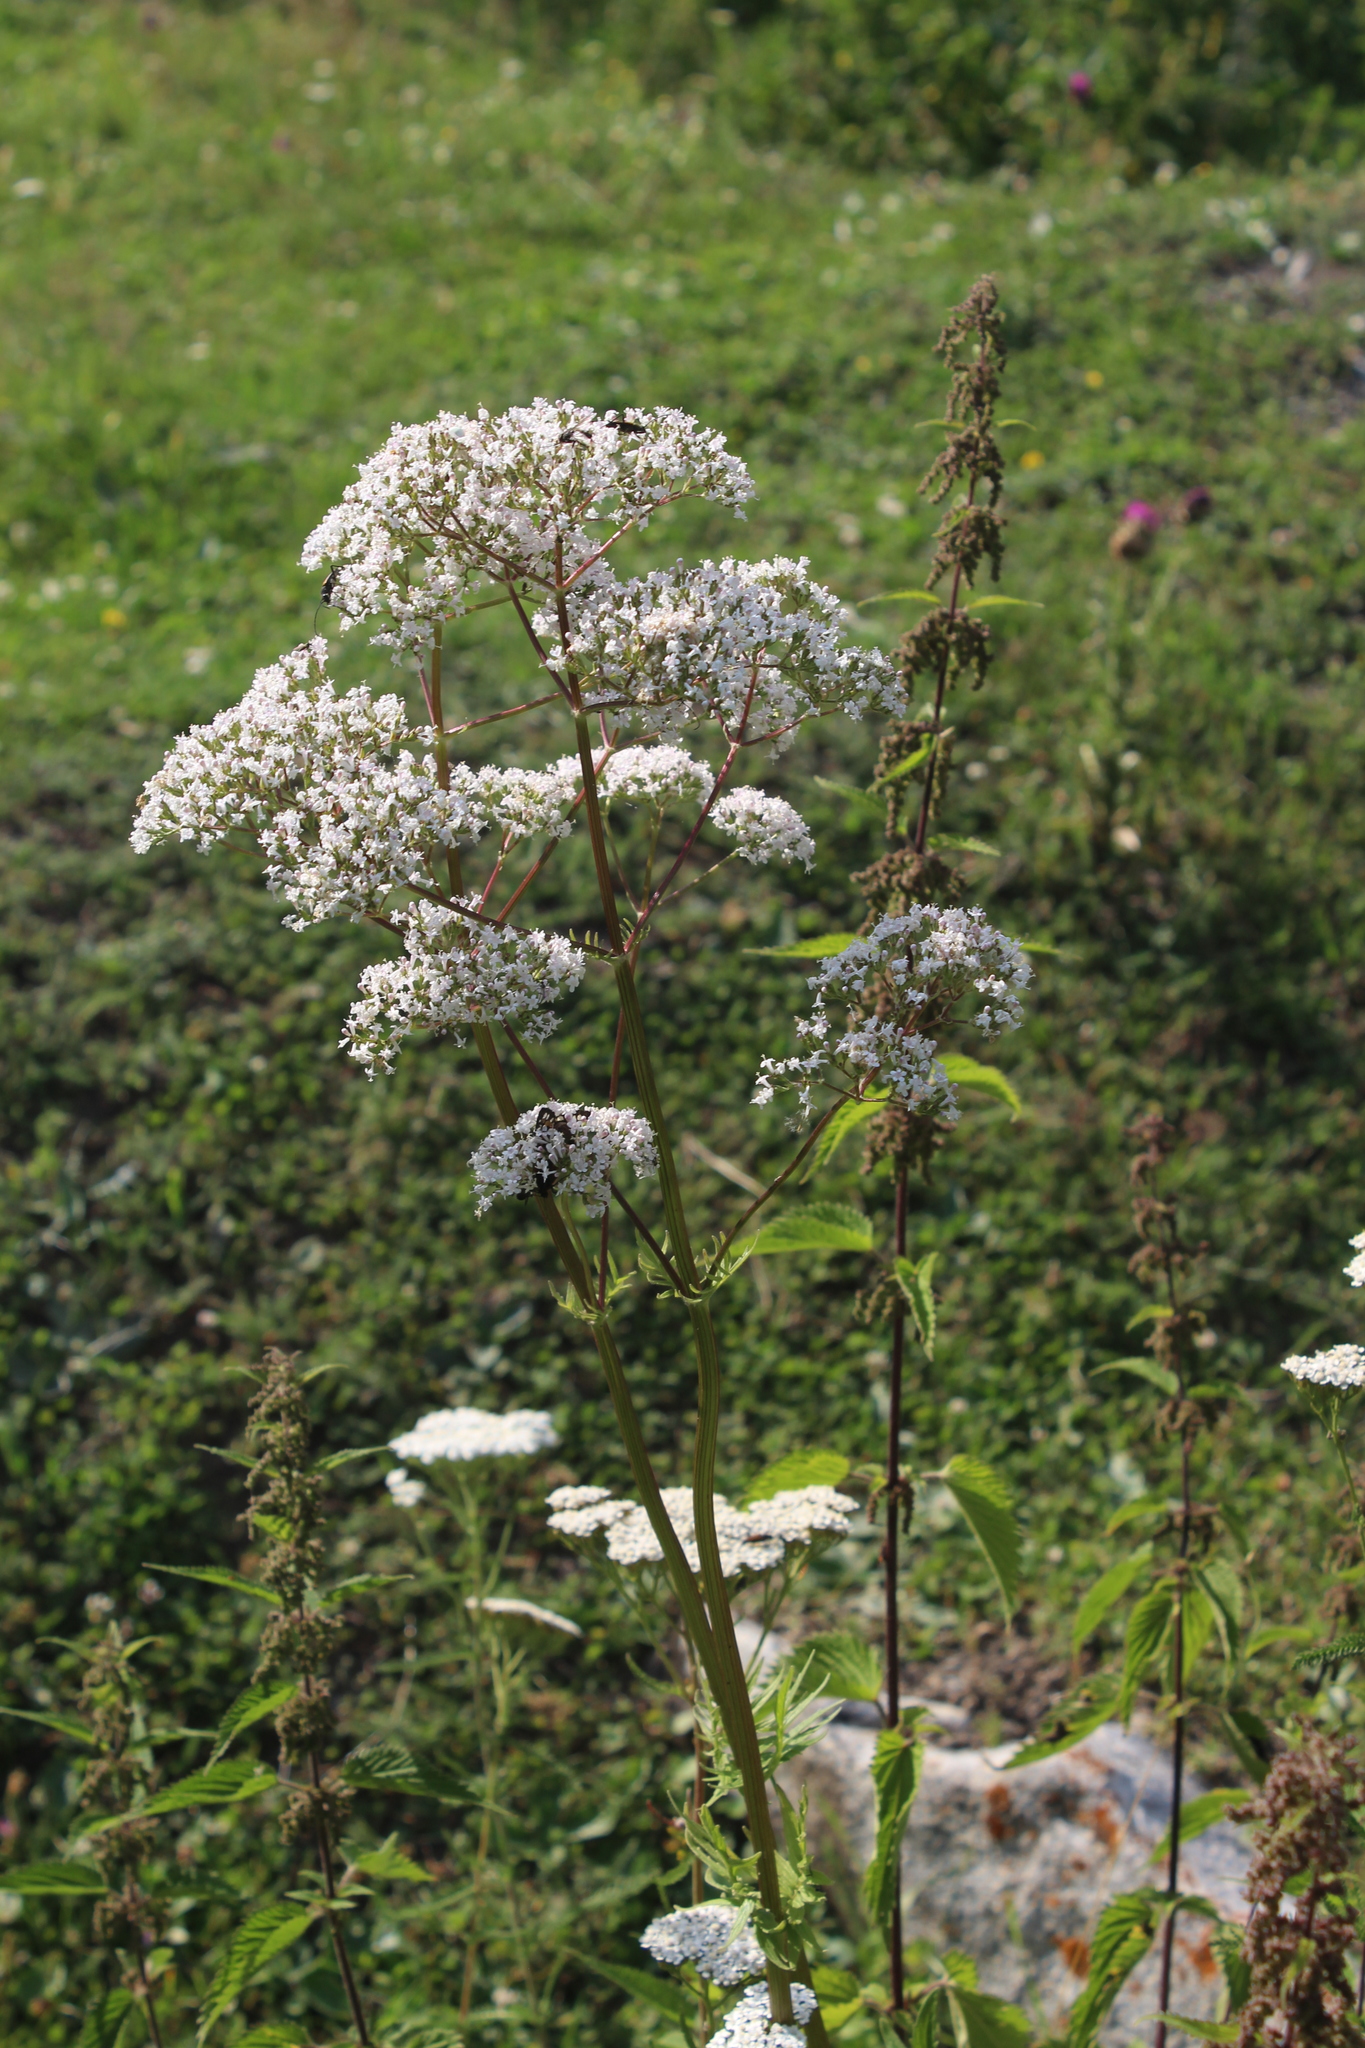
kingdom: Plantae
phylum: Tracheophyta
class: Magnoliopsida
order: Dipsacales
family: Caprifoliaceae
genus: Valeriana
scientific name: Valeriana officinalis
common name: Common valerian
